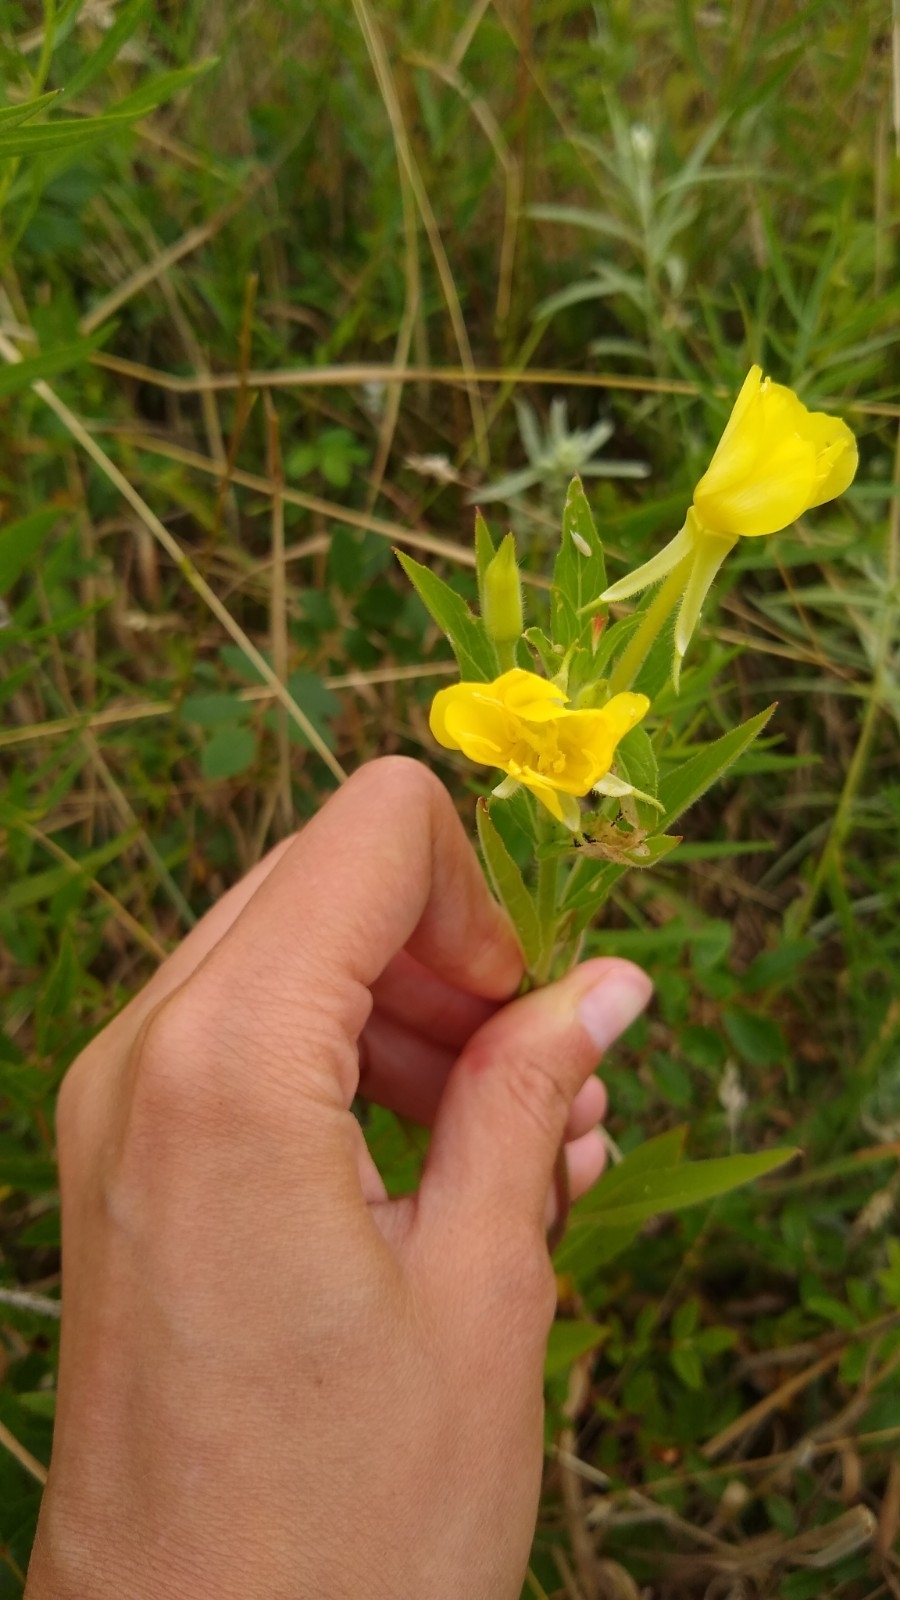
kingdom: Plantae
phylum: Tracheophyta
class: Magnoliopsida
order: Myrtales
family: Onagraceae
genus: Oenothera
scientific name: Oenothera parviflora
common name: Least evening-primrose
